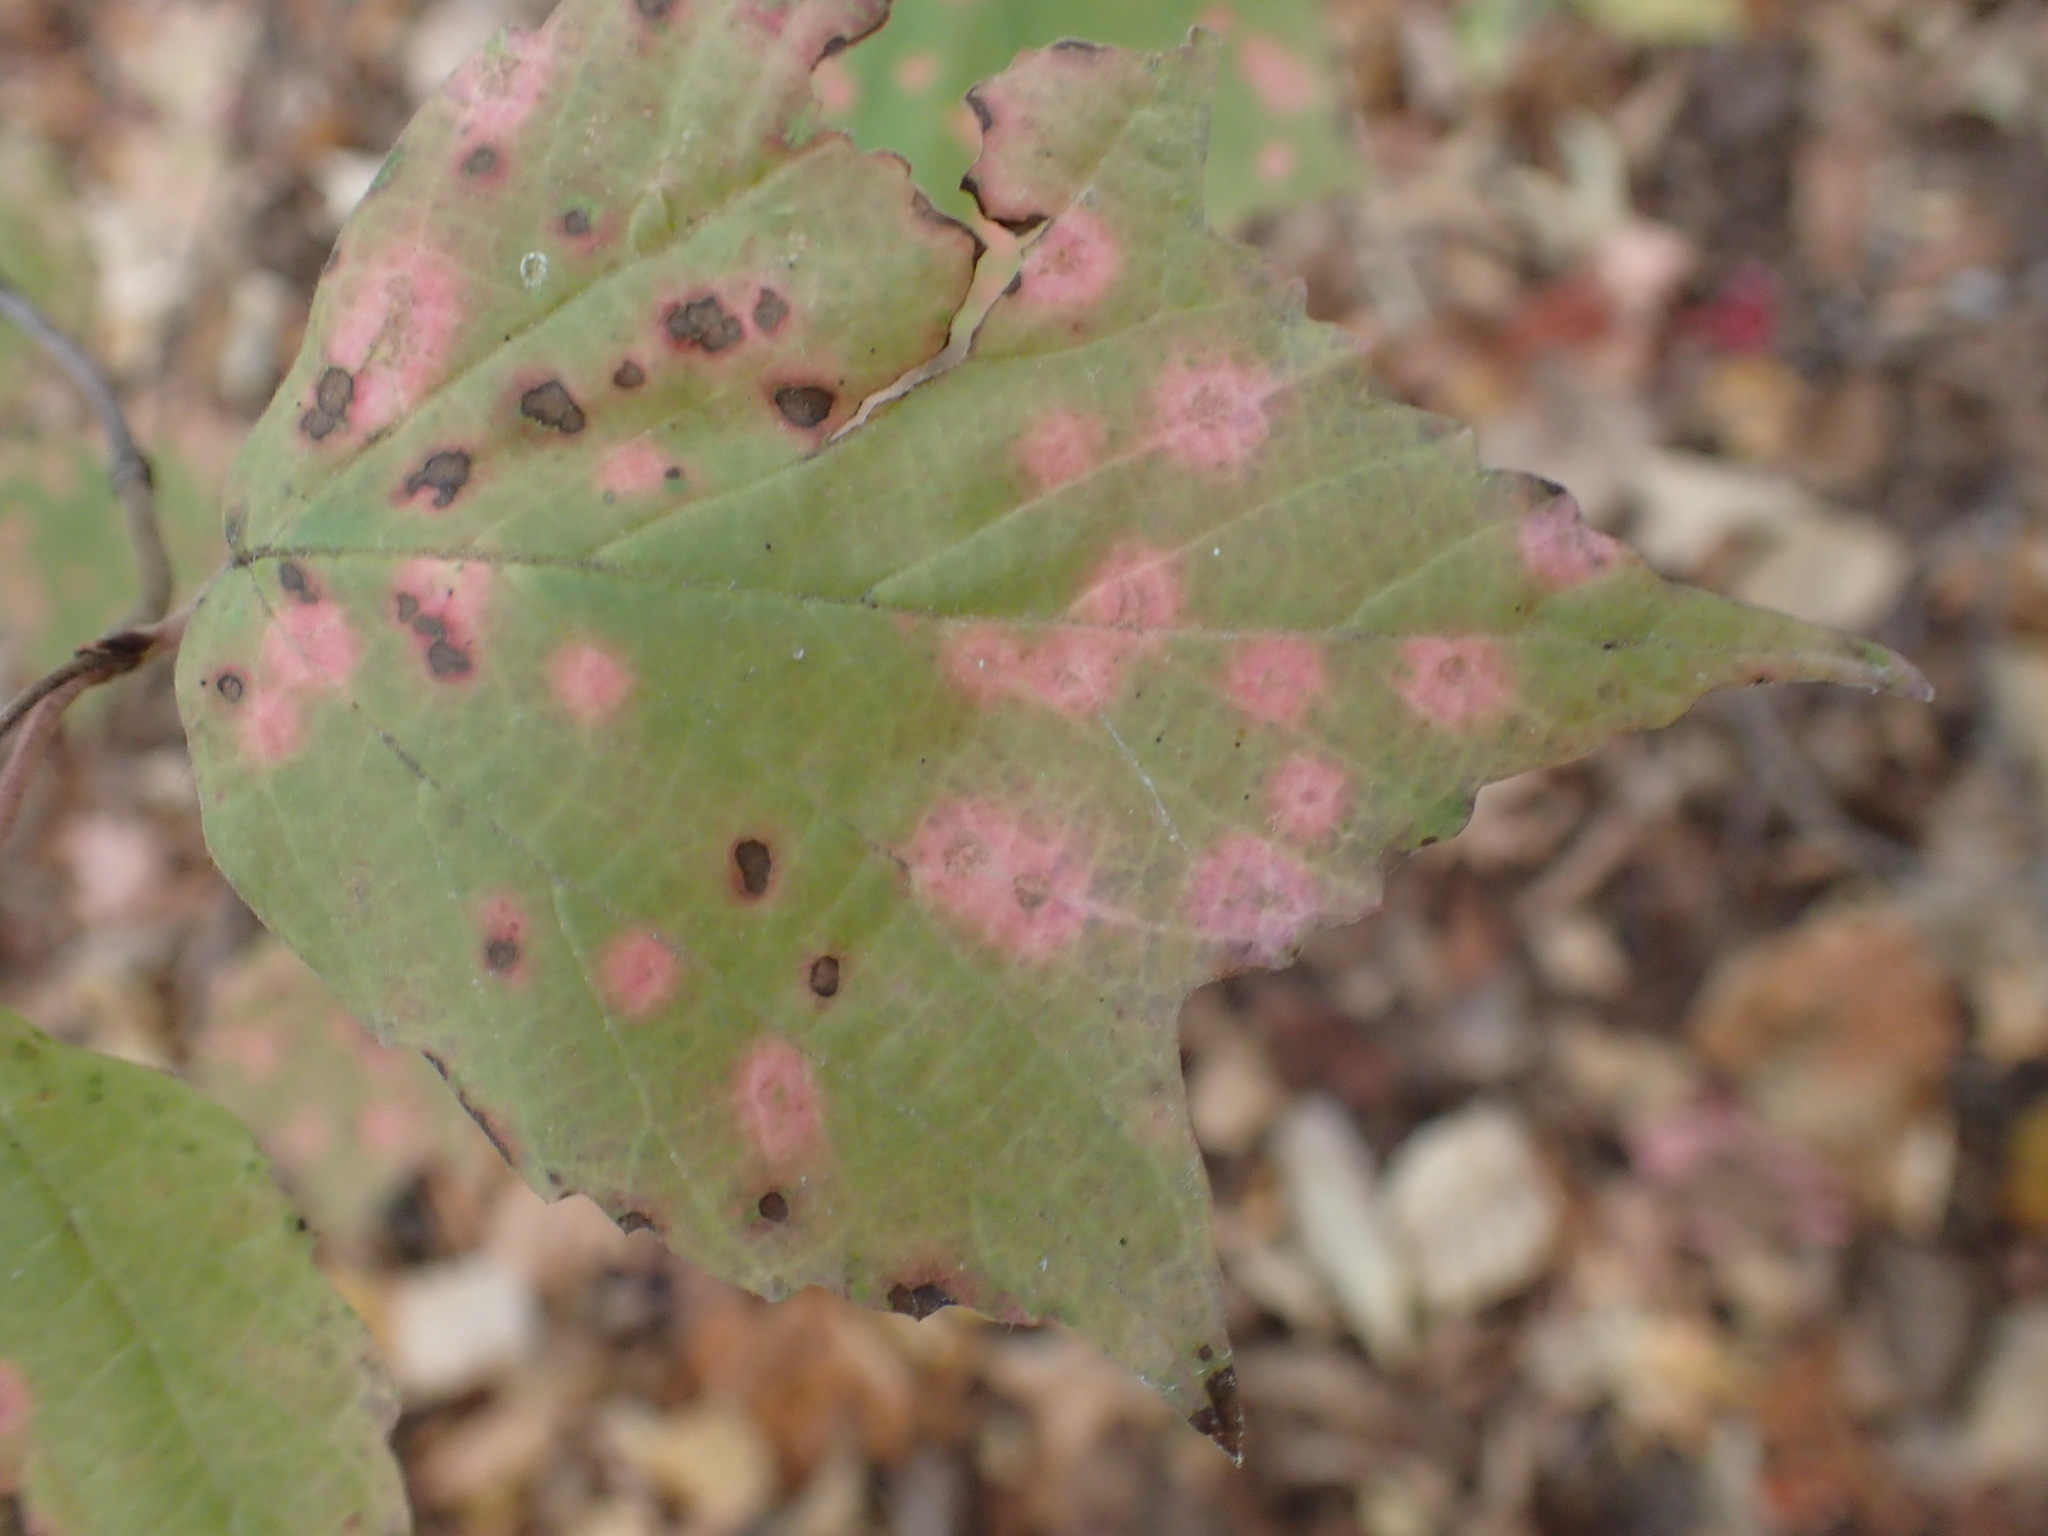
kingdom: Plantae
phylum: Tracheophyta
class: Magnoliopsida
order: Dipsacales
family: Viburnaceae
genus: Viburnum
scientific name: Viburnum acerifolium
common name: Dockmackie
